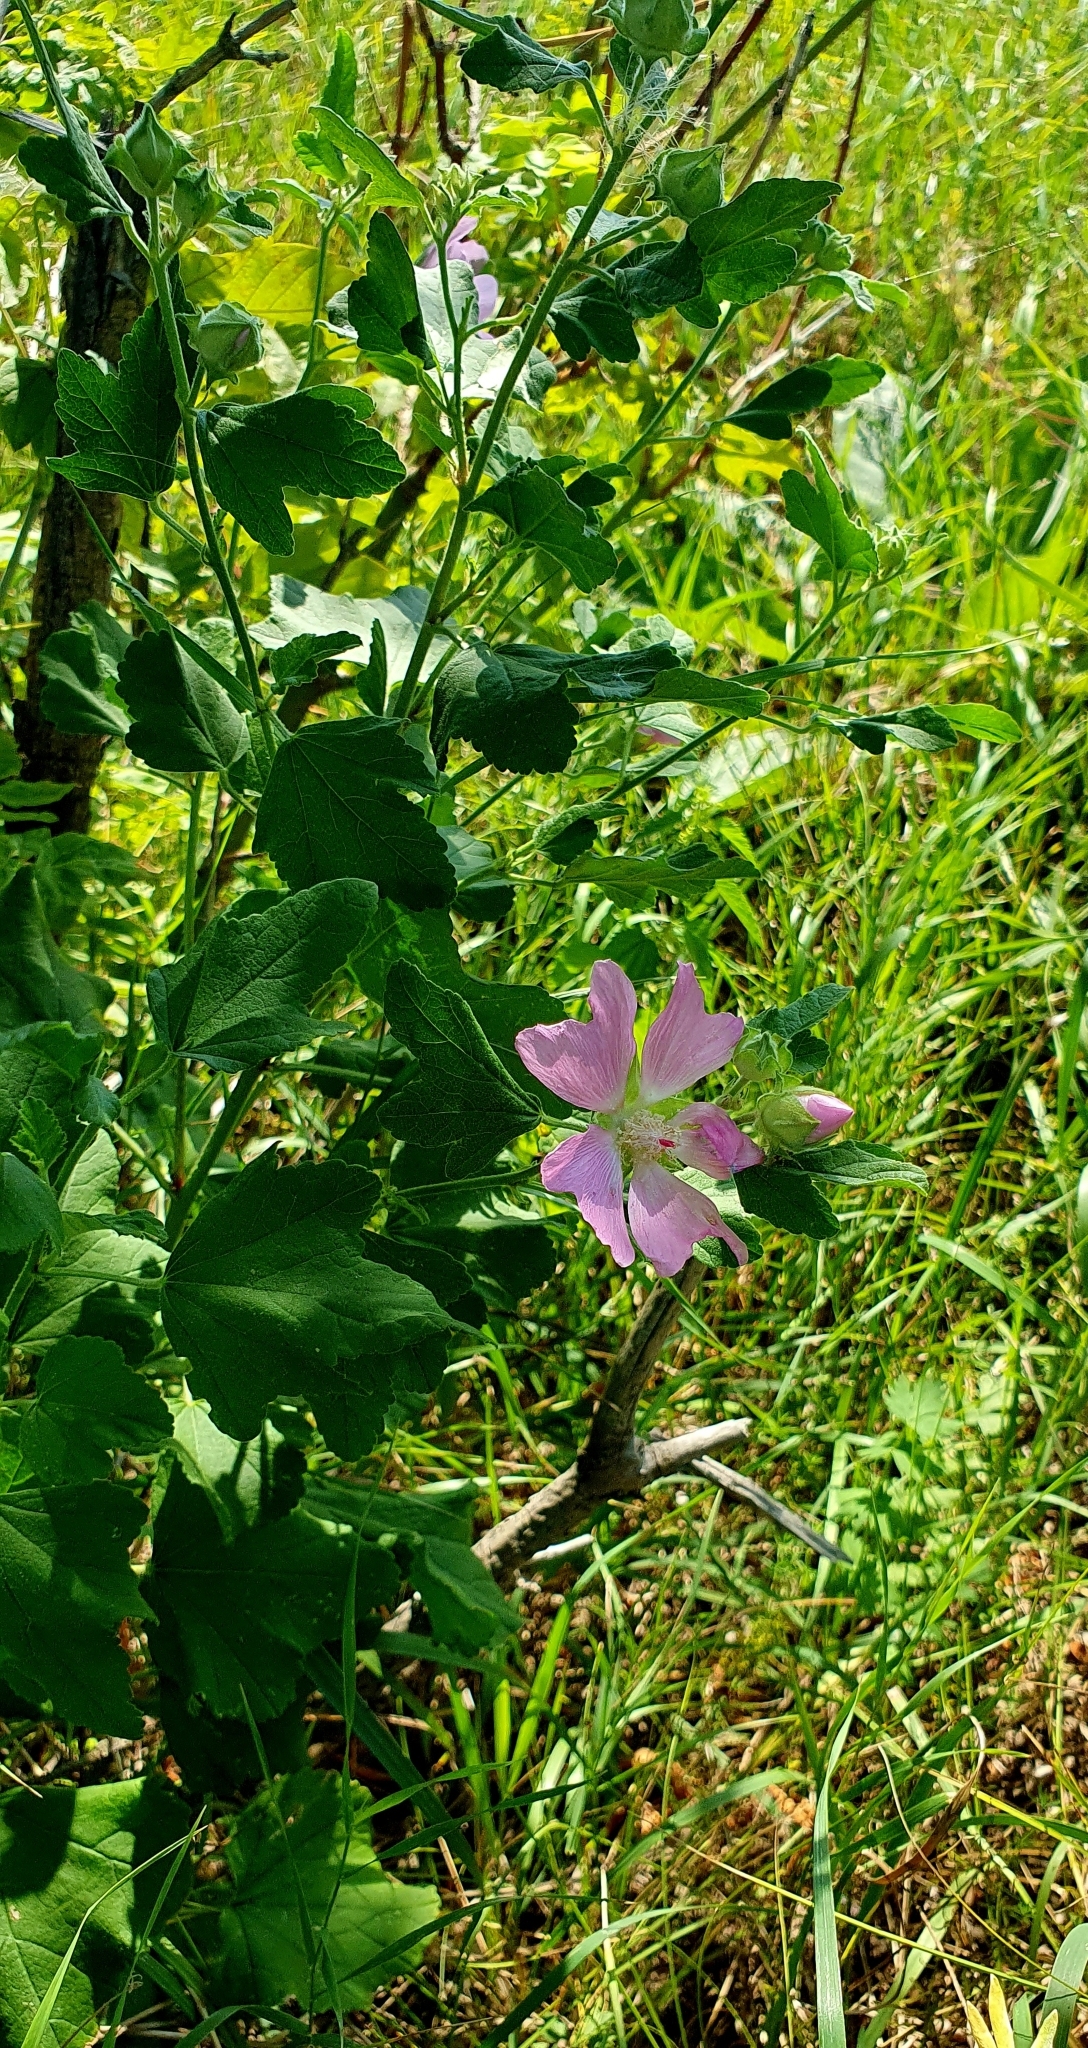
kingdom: Plantae
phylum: Tracheophyta
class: Magnoliopsida
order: Malvales
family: Malvaceae
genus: Malva
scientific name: Malva thuringiaca
